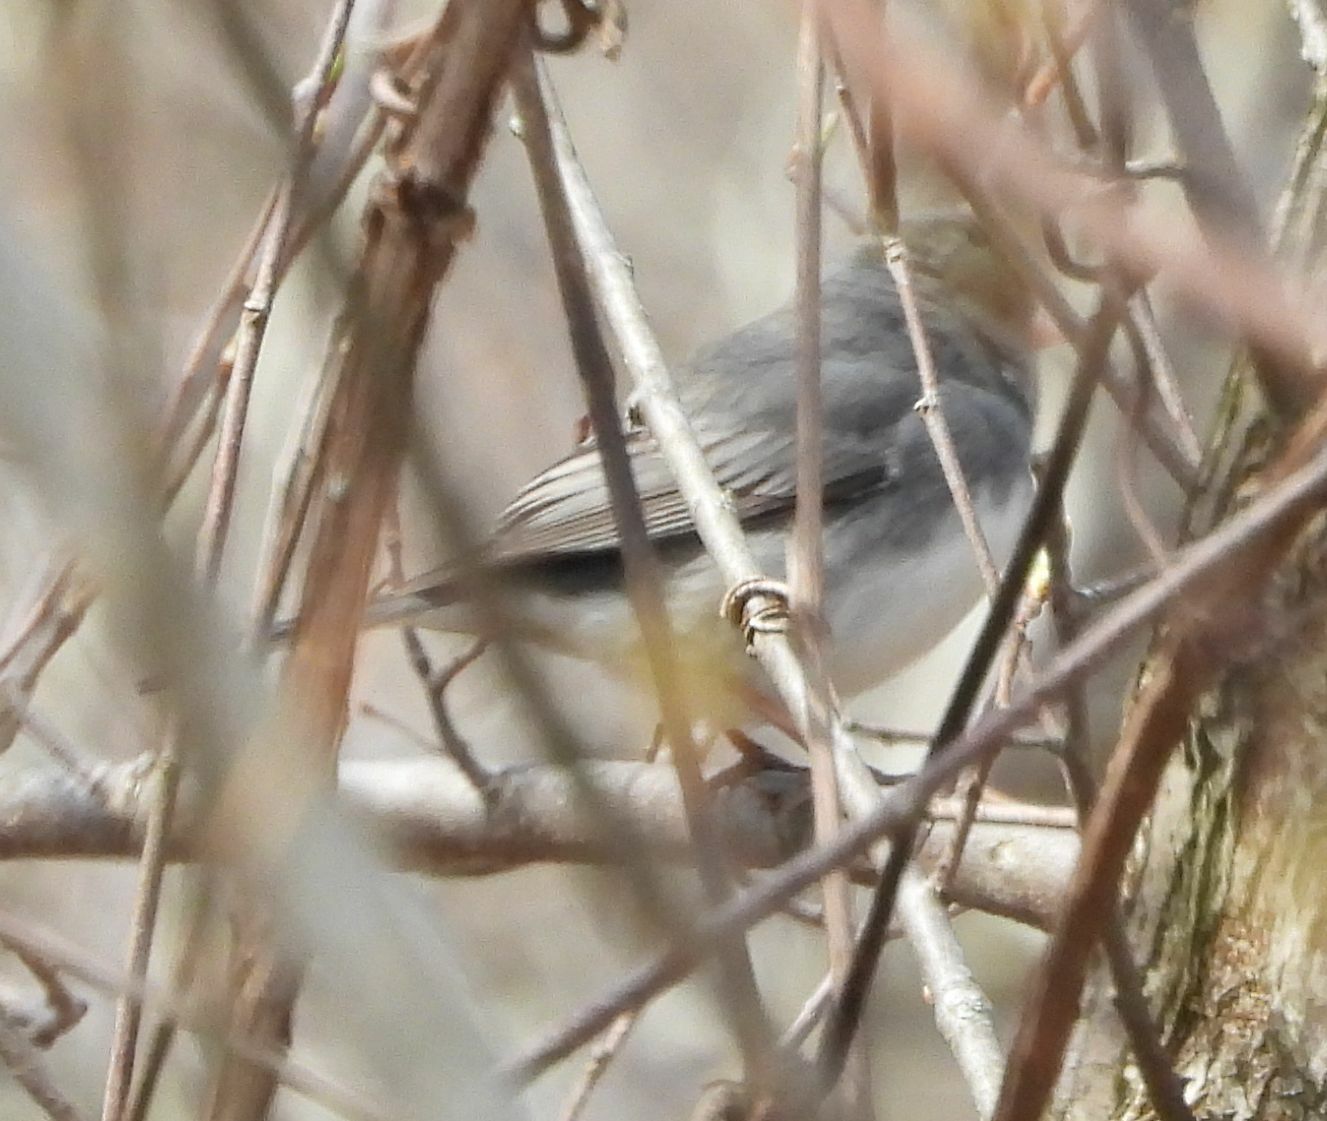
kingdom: Animalia
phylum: Chordata
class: Aves
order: Passeriformes
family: Passerellidae
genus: Junco
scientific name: Junco hyemalis
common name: Dark-eyed junco
